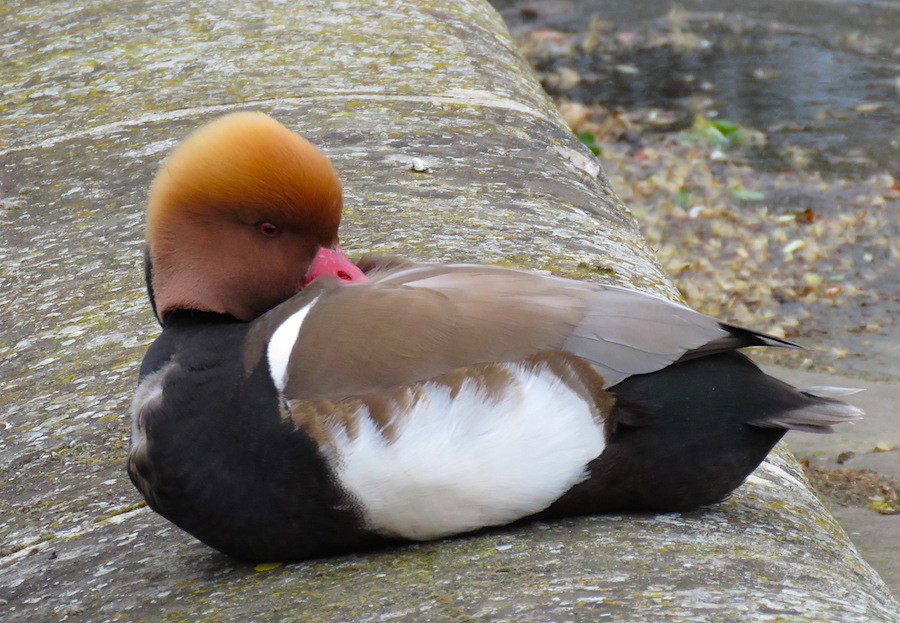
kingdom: Animalia
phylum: Chordata
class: Aves
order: Anseriformes
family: Anatidae
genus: Netta
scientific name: Netta rufina
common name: Red-crested pochard
